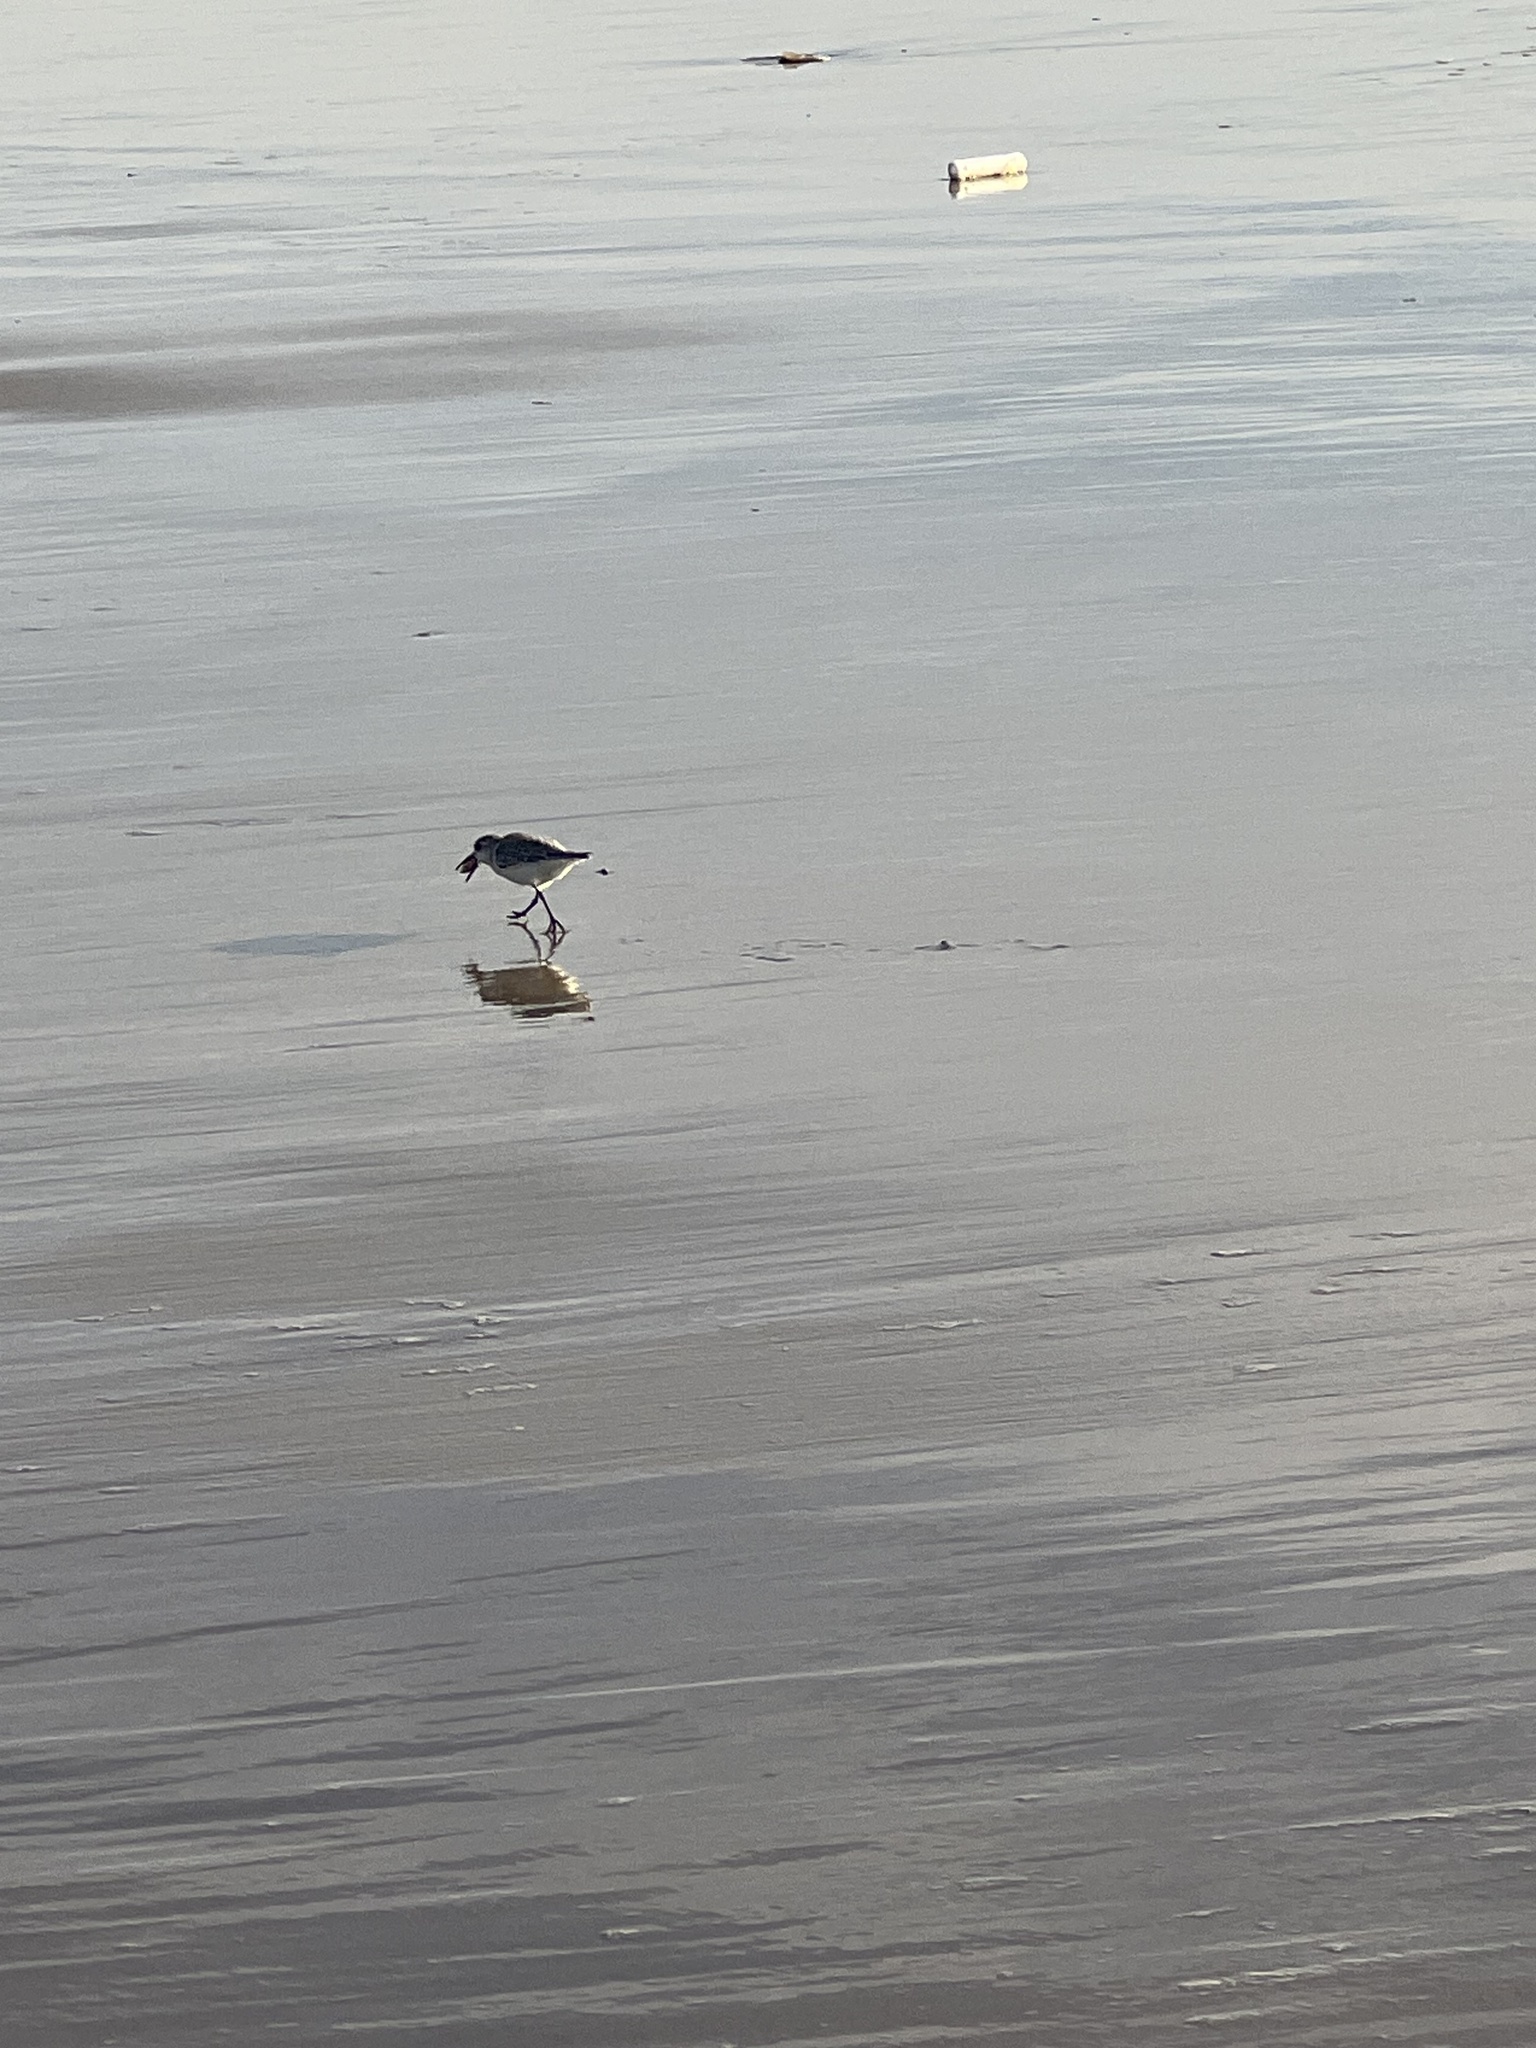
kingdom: Animalia
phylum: Chordata
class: Aves
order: Charadriiformes
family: Scolopacidae
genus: Calidris
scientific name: Calidris alba
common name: Sanderling
